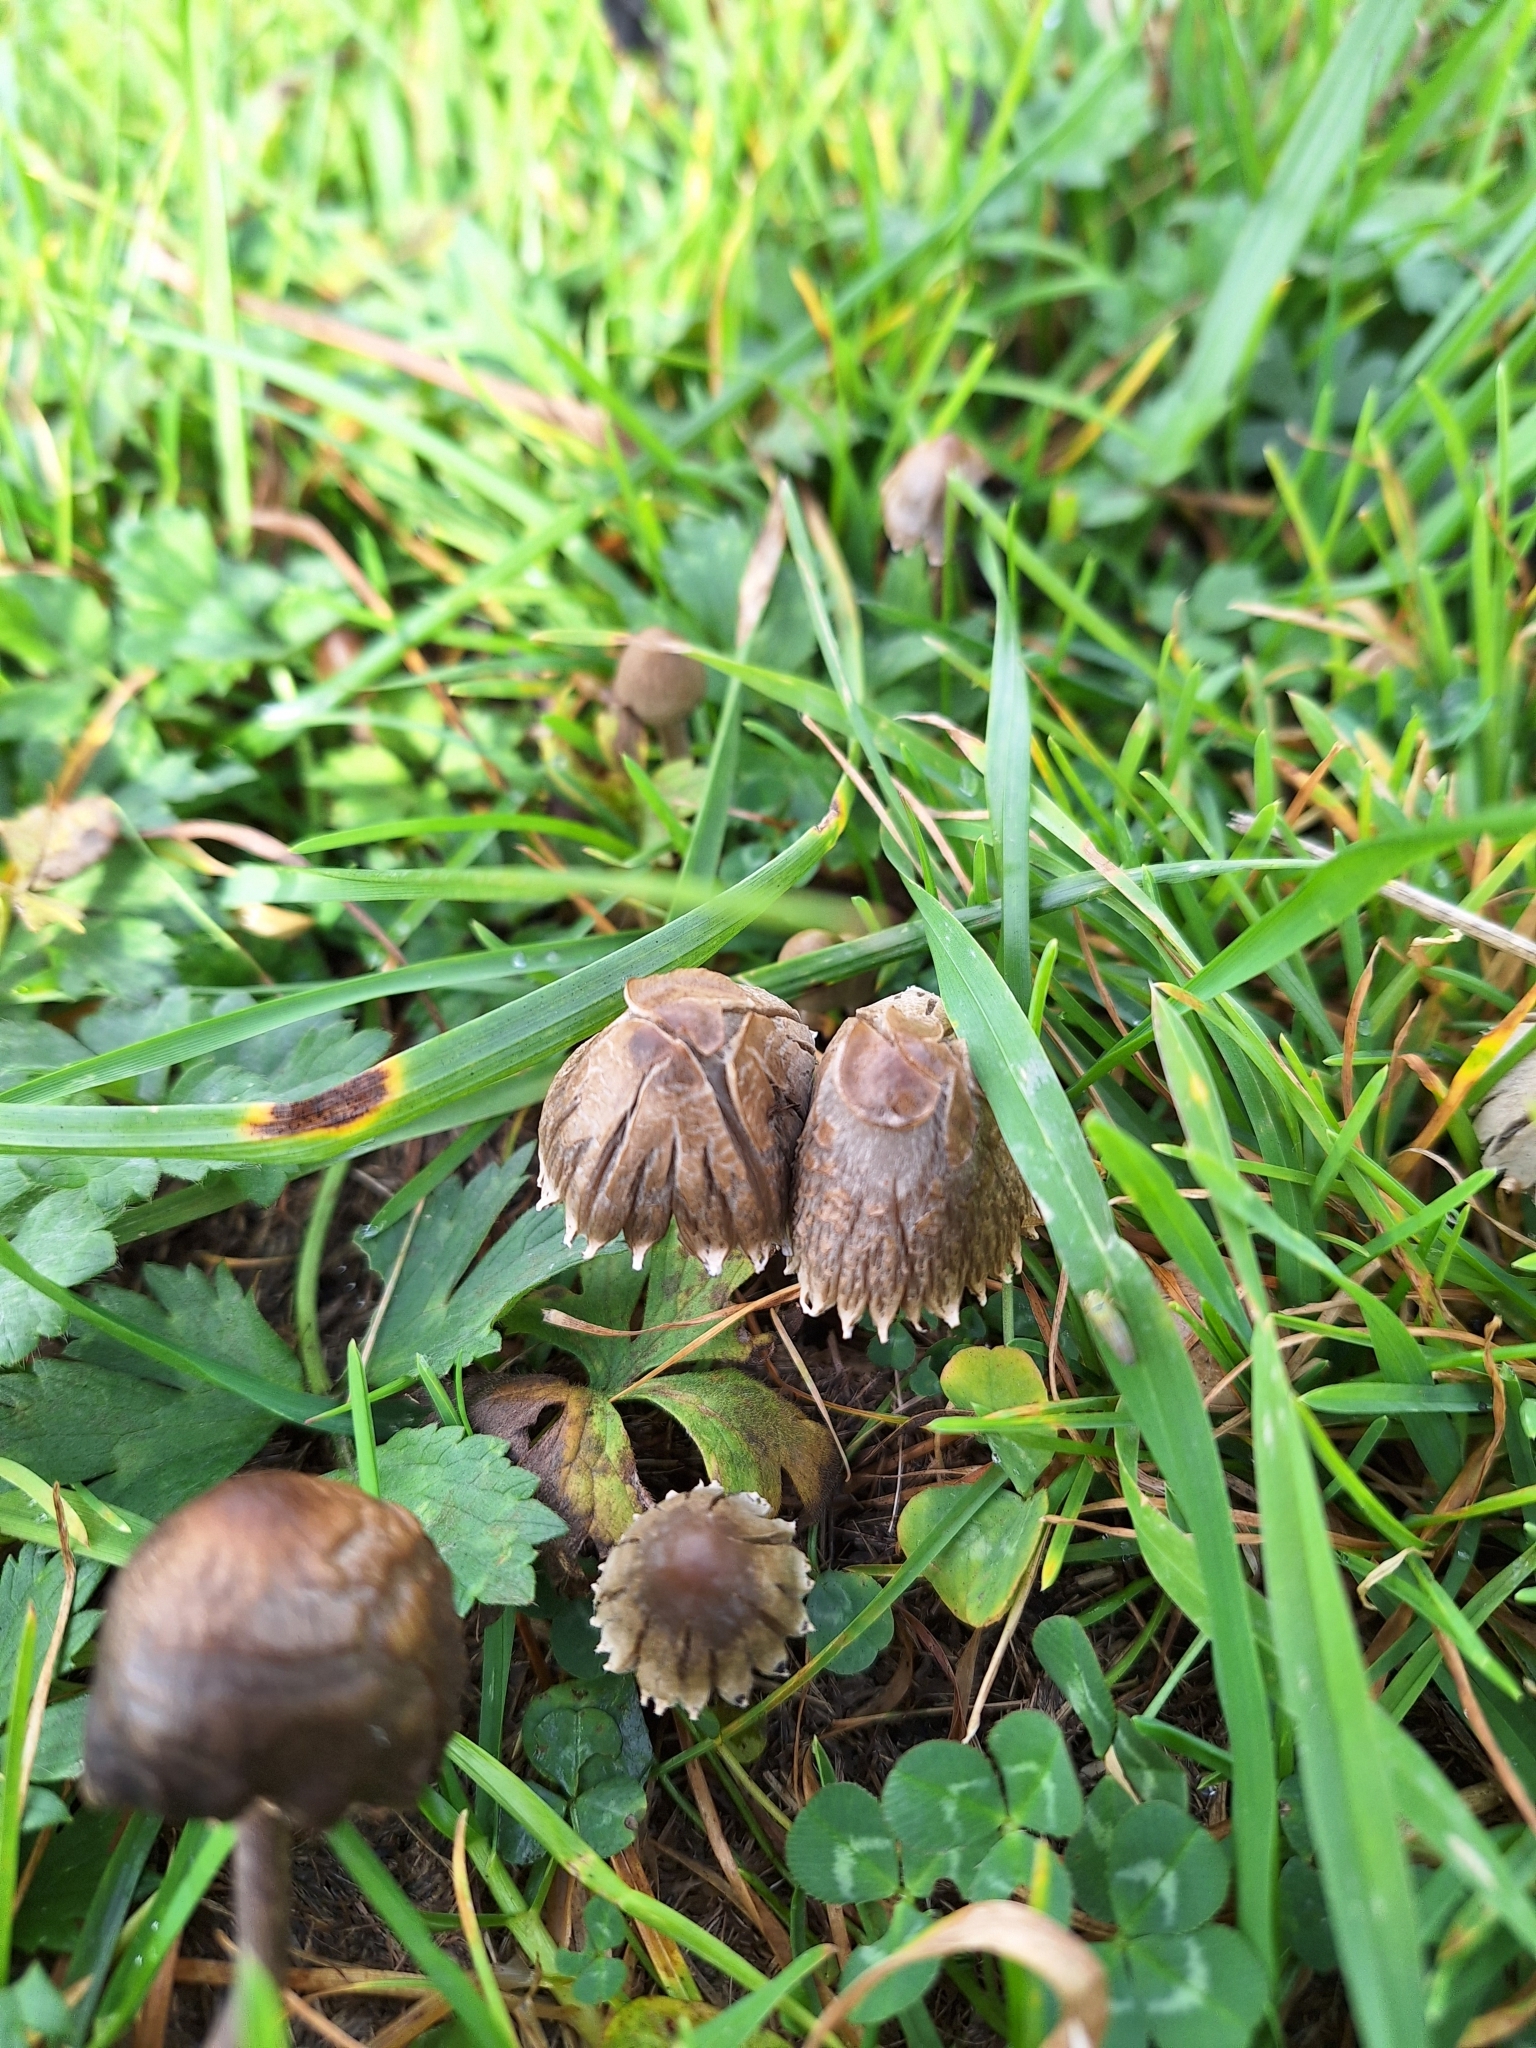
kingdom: Fungi
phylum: Basidiomycota
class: Agaricomycetes
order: Agaricales
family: Bolbitiaceae
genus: Panaeolus
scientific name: Panaeolus papilionaceus
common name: Petticoat mottlegill
